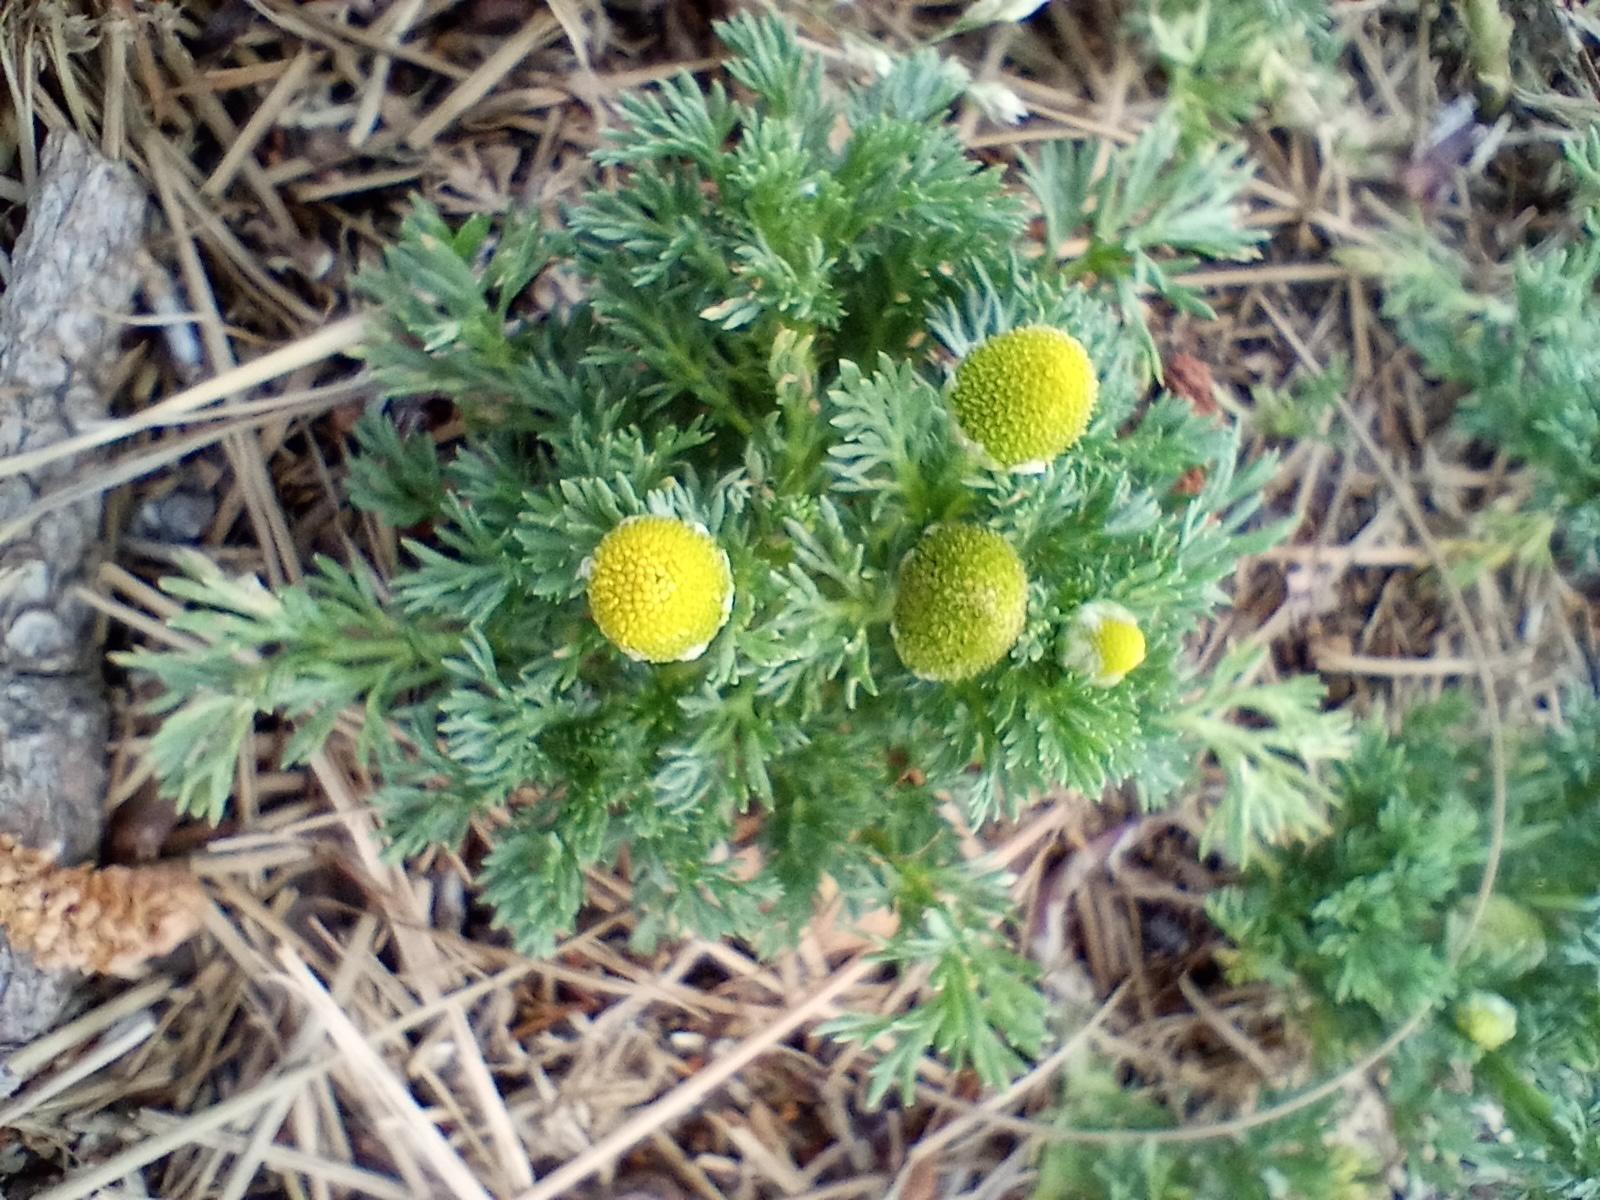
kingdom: Plantae
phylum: Tracheophyta
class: Magnoliopsida
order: Asterales
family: Asteraceae
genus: Matricaria
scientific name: Matricaria discoidea
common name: Disc mayweed
